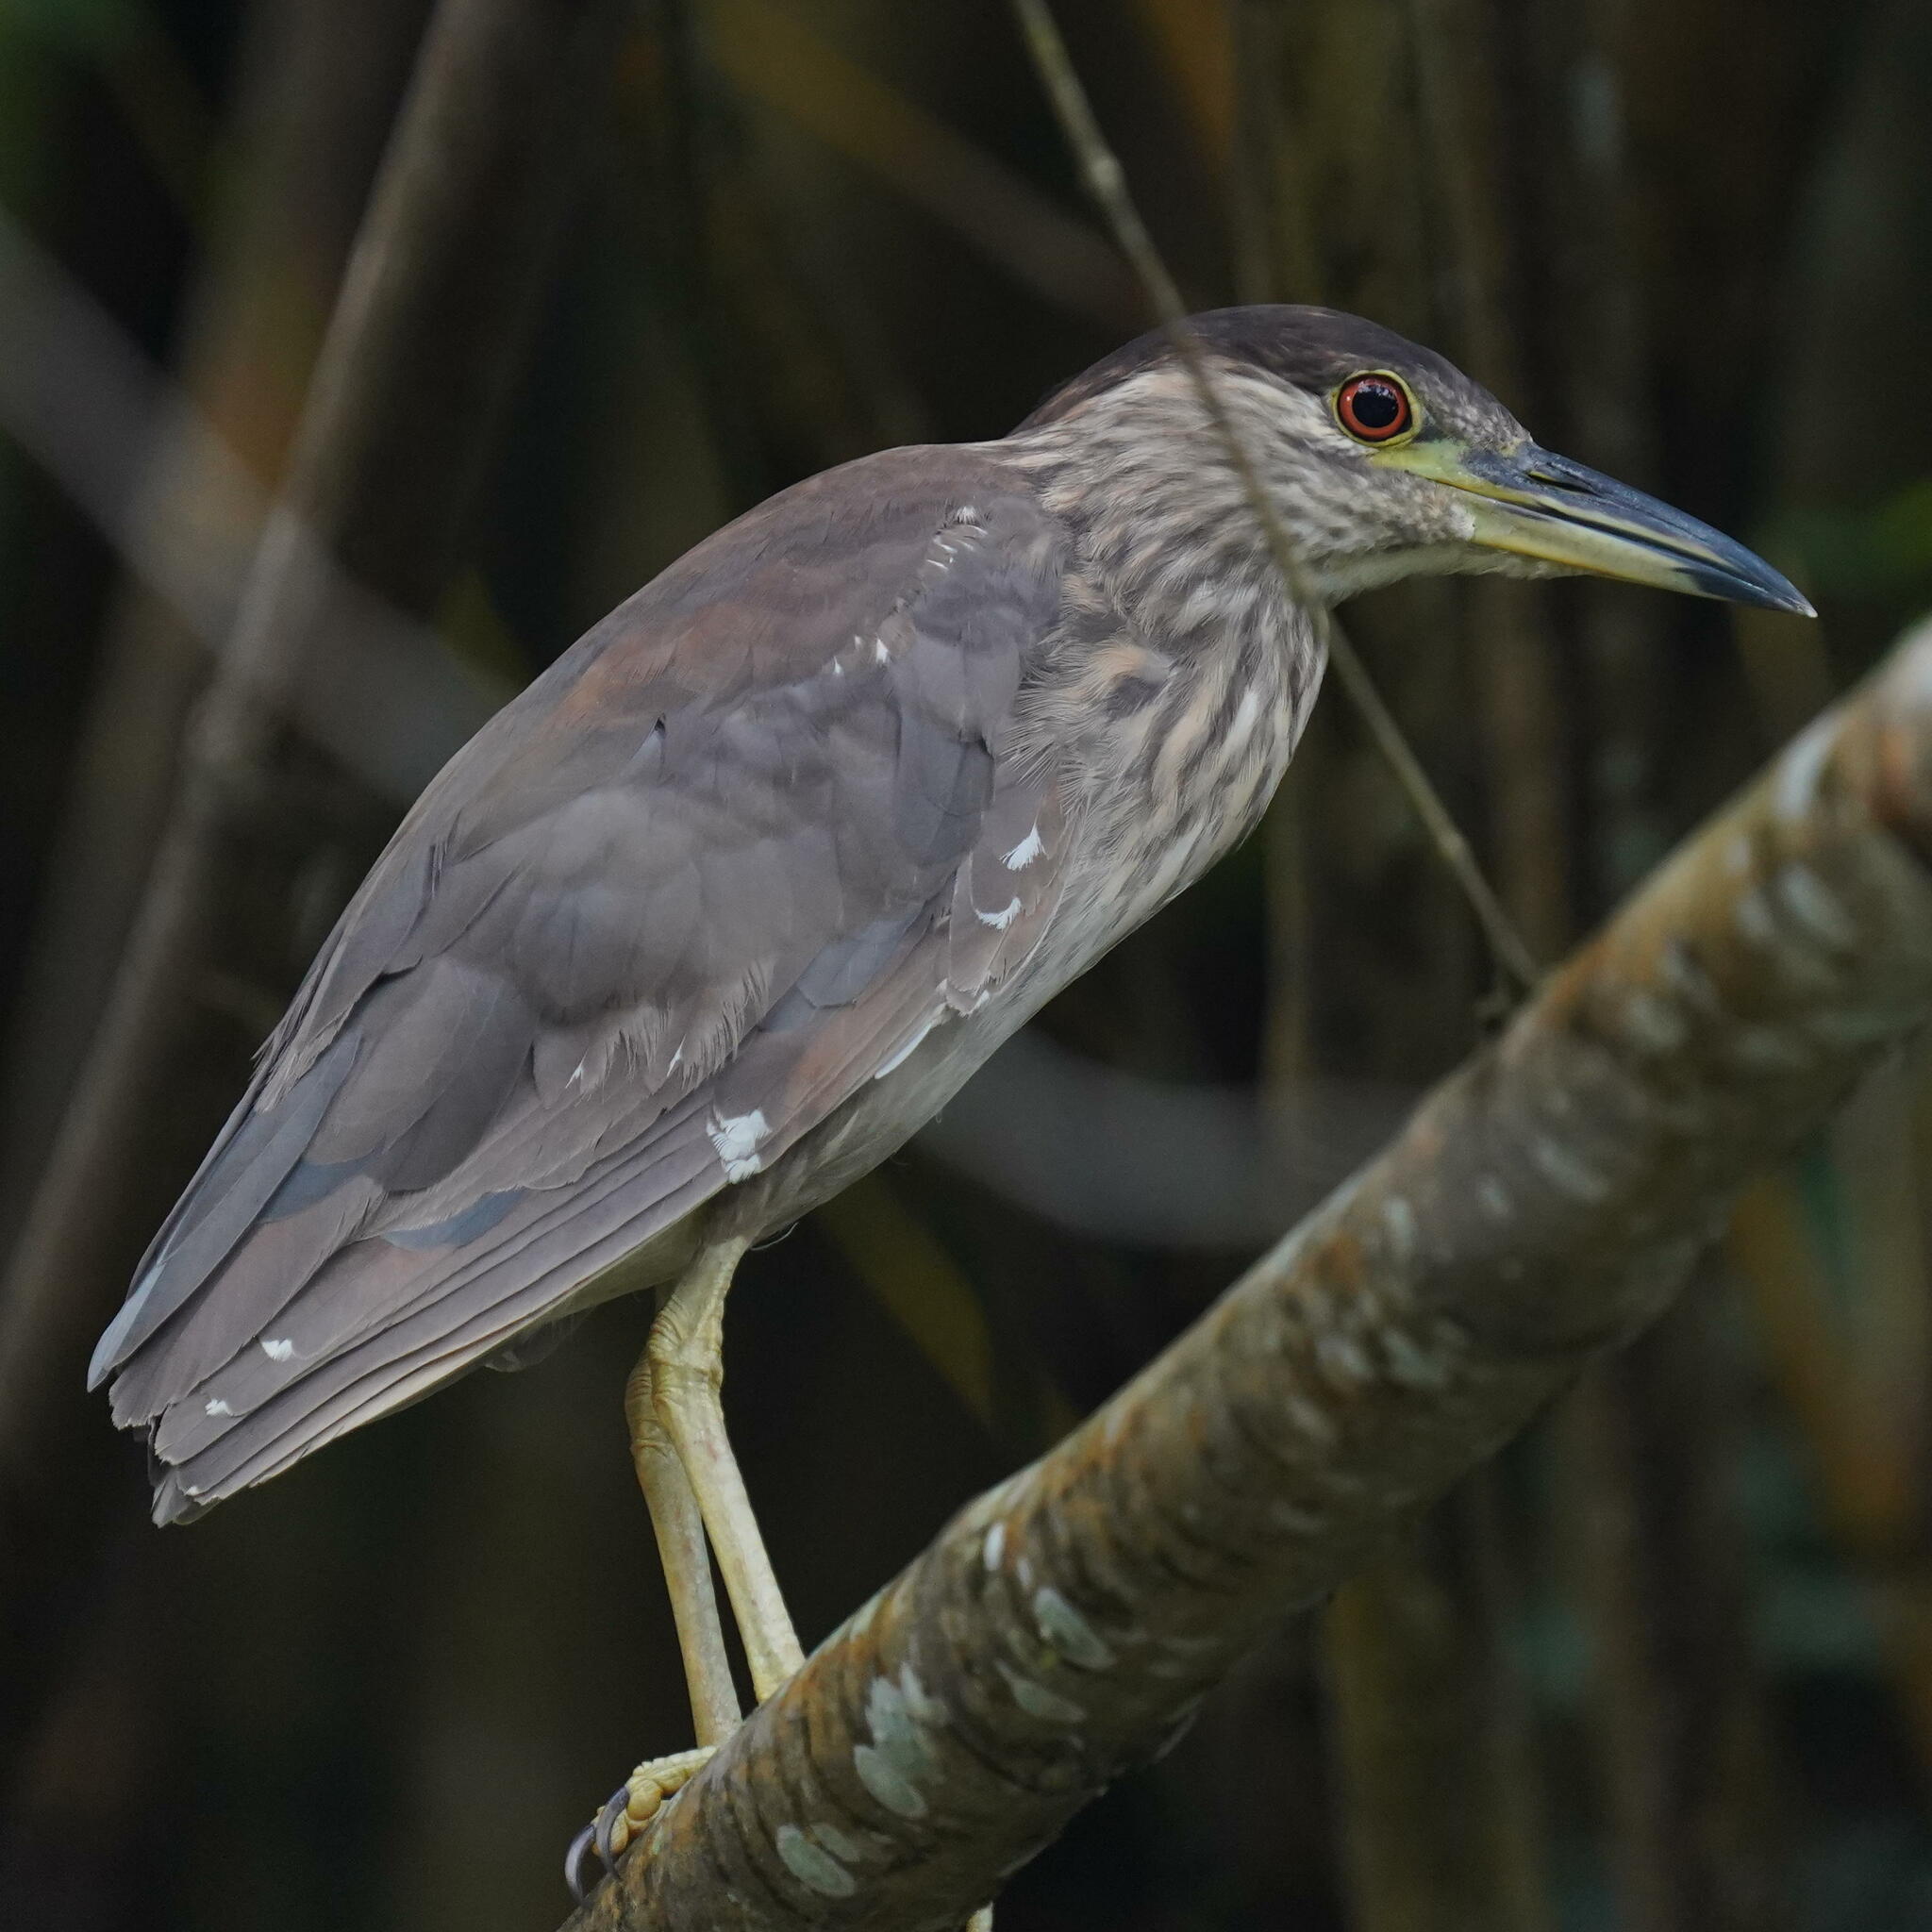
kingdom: Animalia
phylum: Chordata
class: Aves
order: Pelecaniformes
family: Ardeidae
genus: Nycticorax
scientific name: Nycticorax nycticorax
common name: Black-crowned night heron
